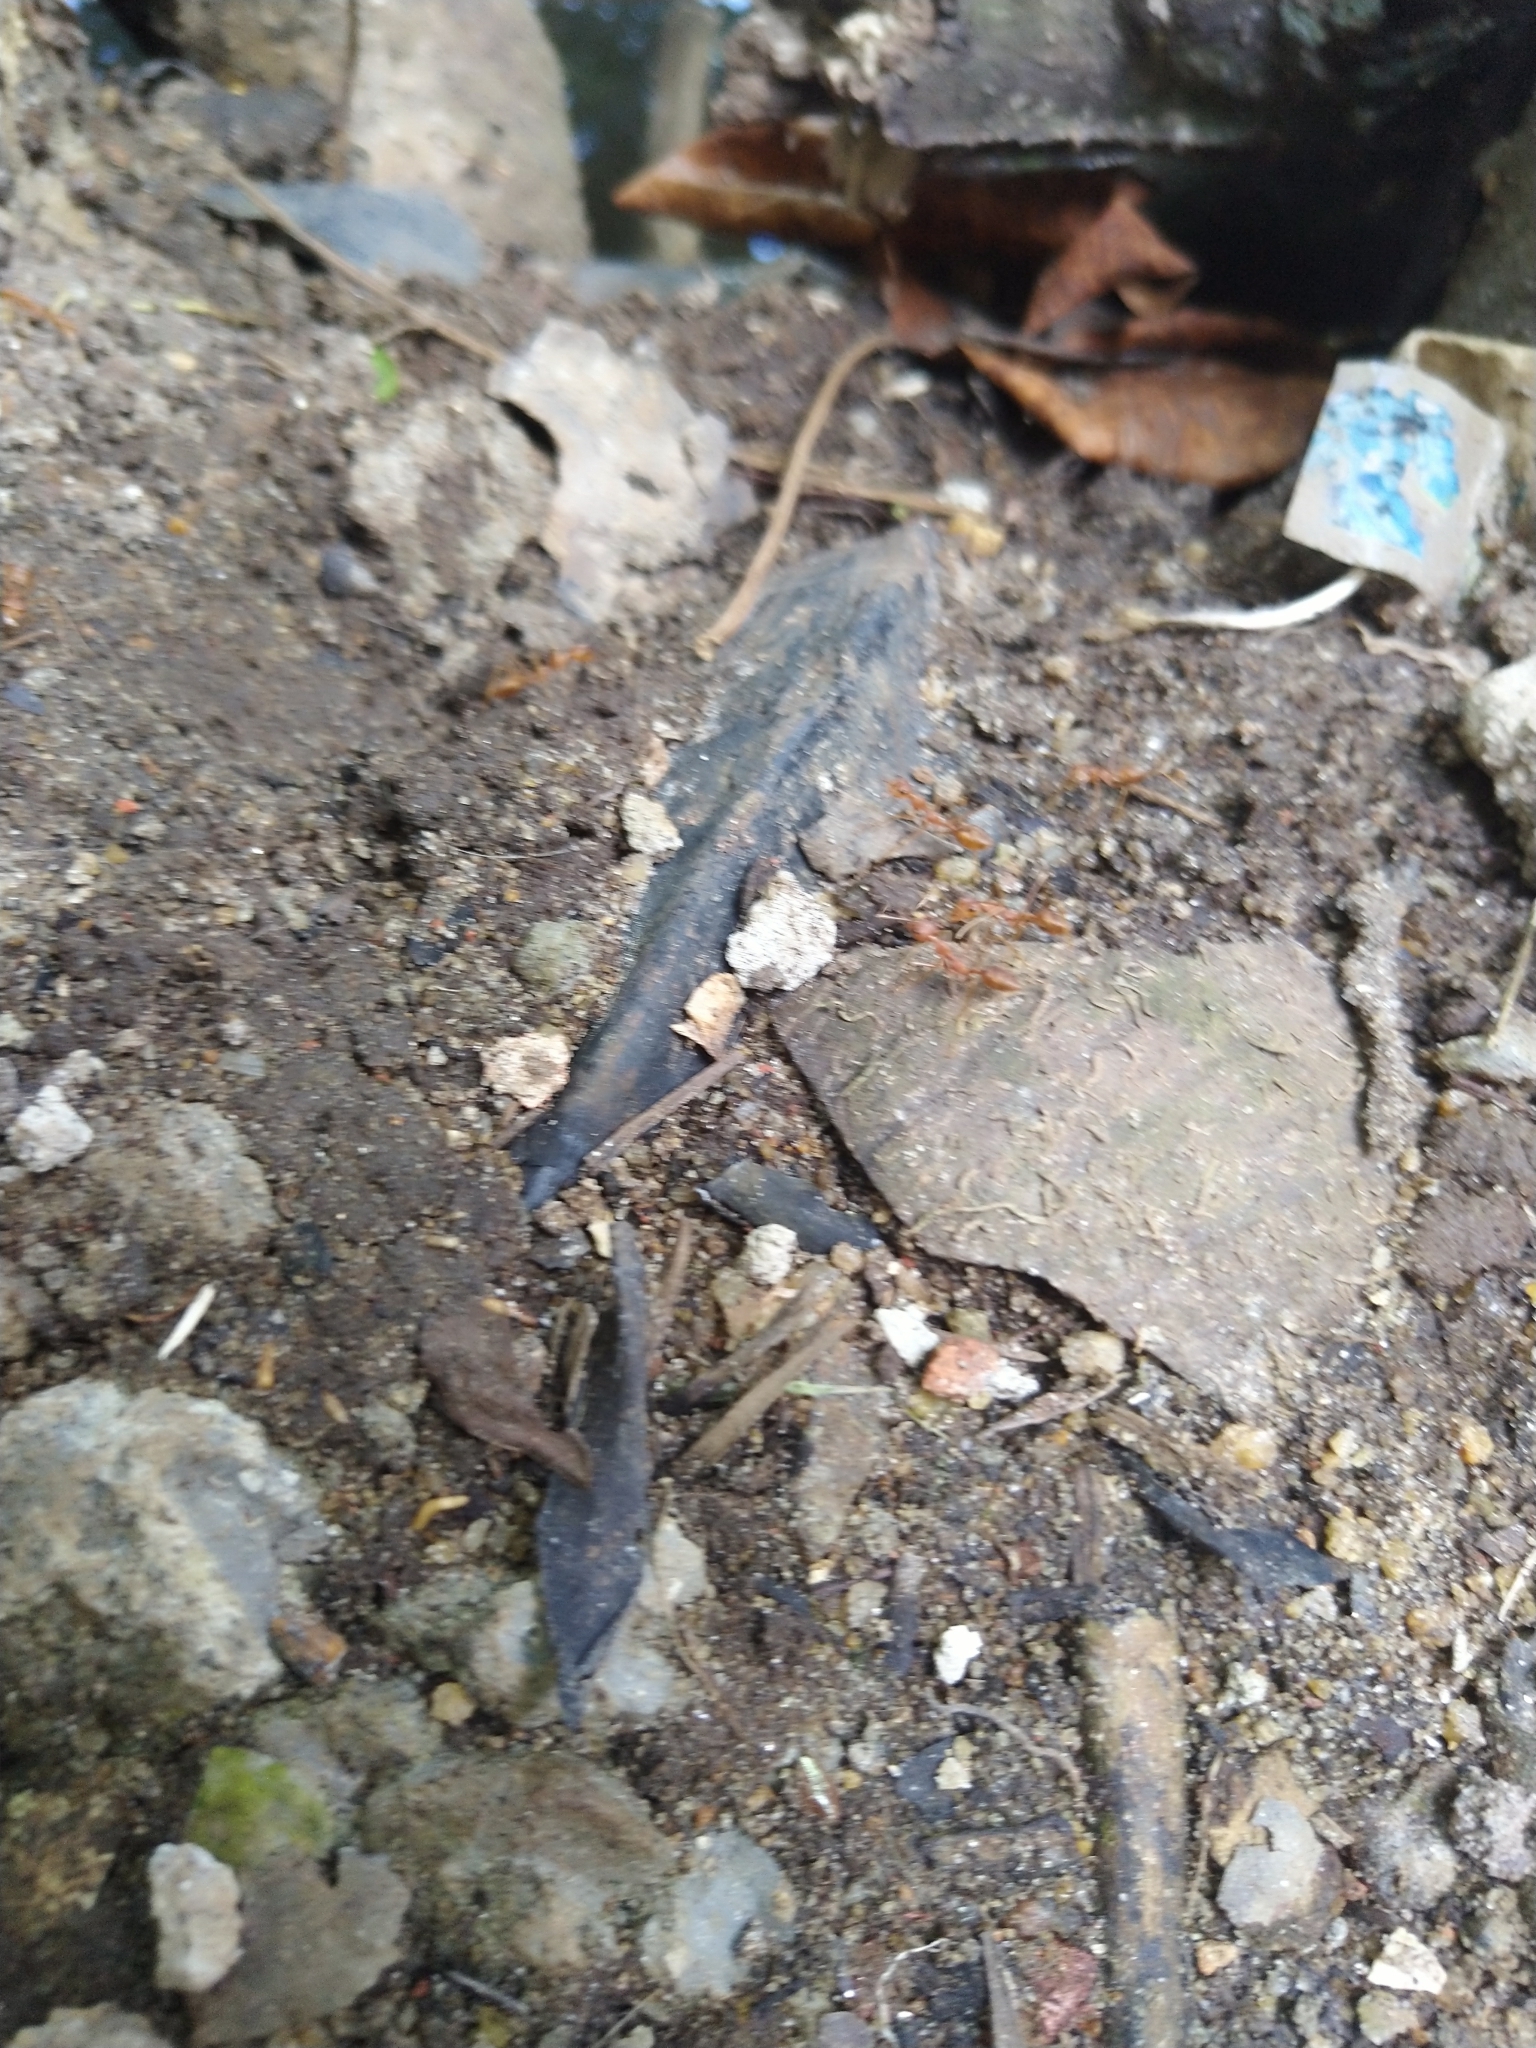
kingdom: Animalia
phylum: Arthropoda
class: Insecta
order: Hymenoptera
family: Formicidae
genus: Oecophylla
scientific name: Oecophylla smaragdina
